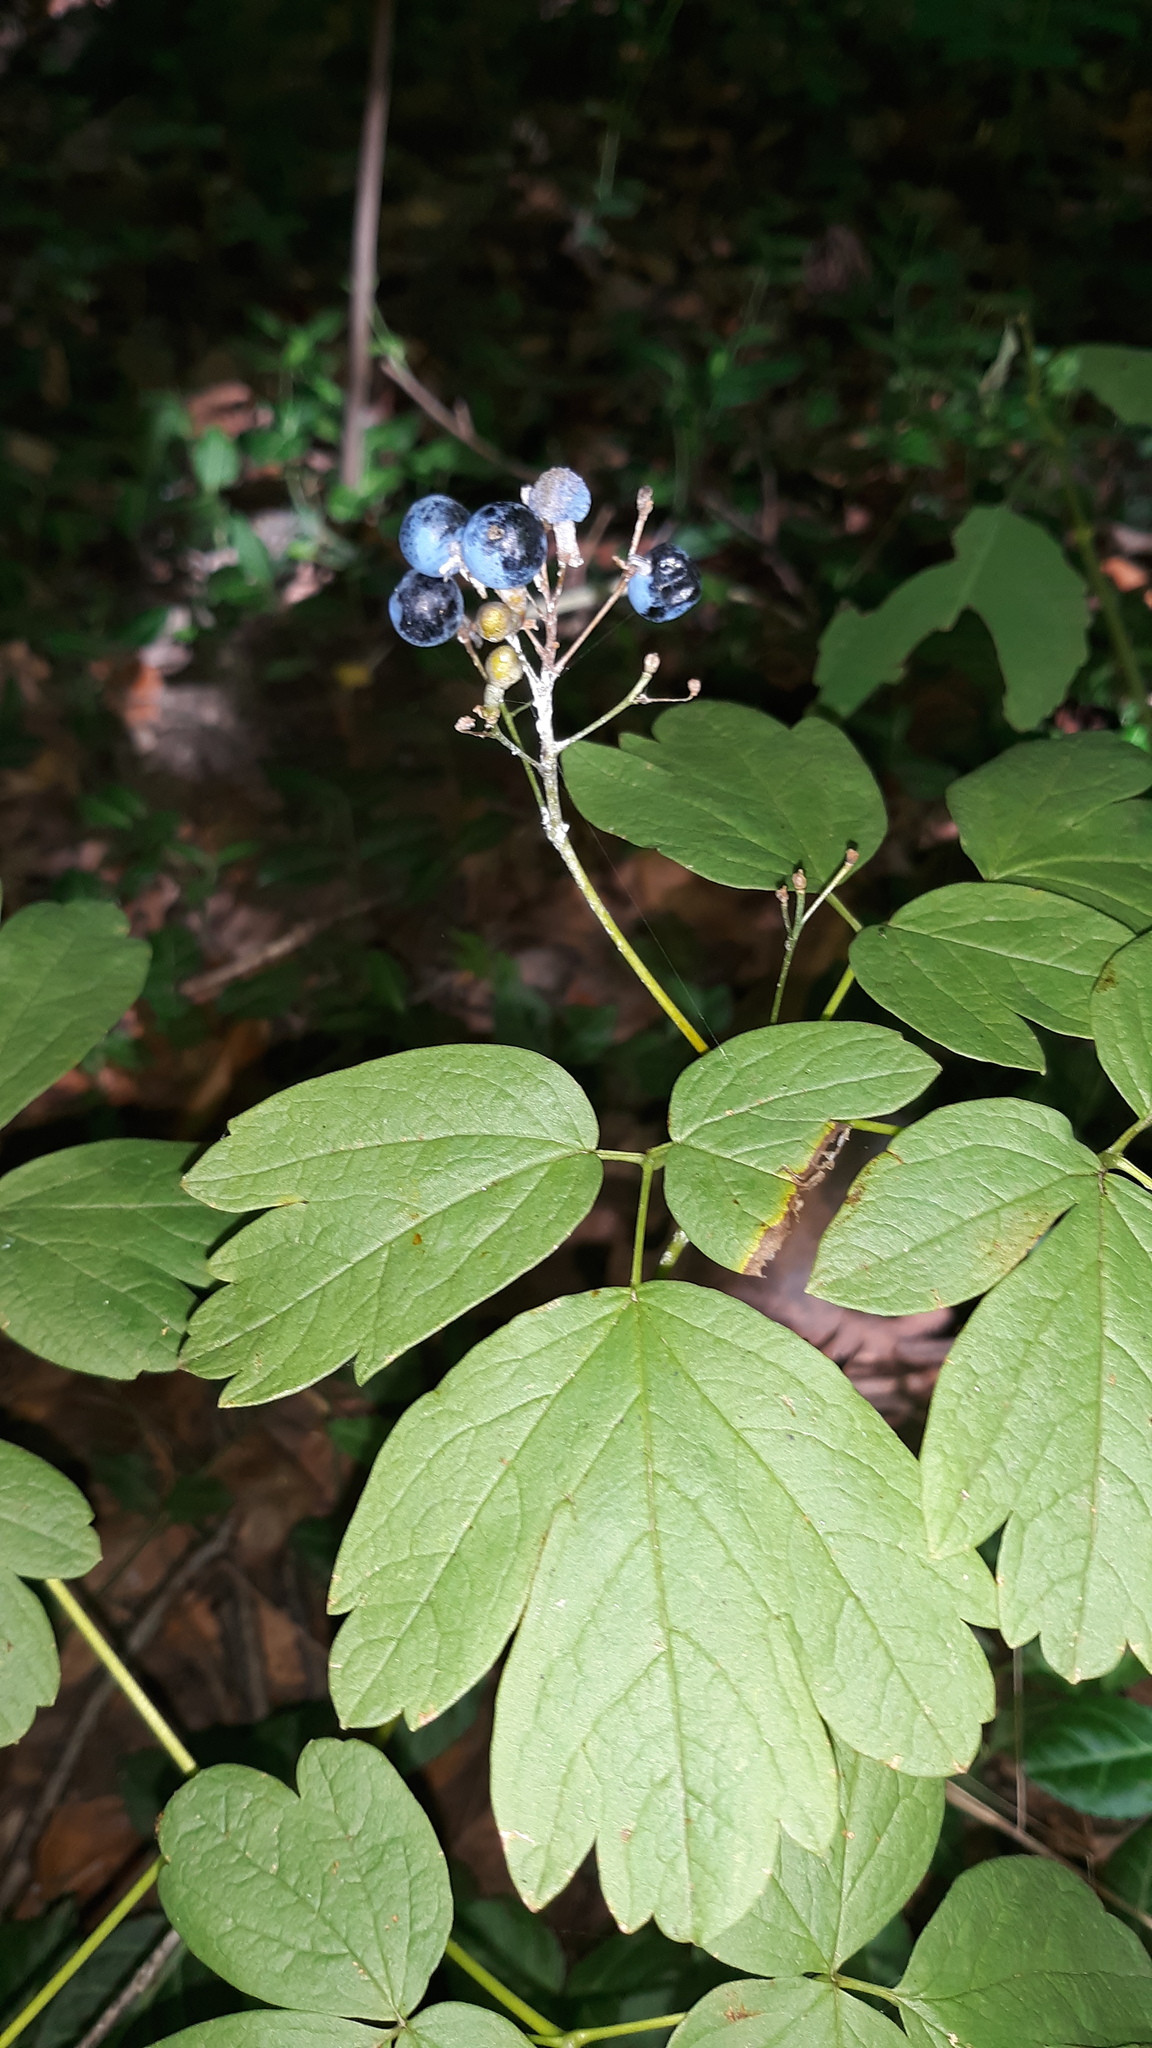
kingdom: Plantae
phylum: Tracheophyta
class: Magnoliopsida
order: Ranunculales
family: Berberidaceae
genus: Caulophyllum
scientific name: Caulophyllum thalictroides
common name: Blue cohosh
